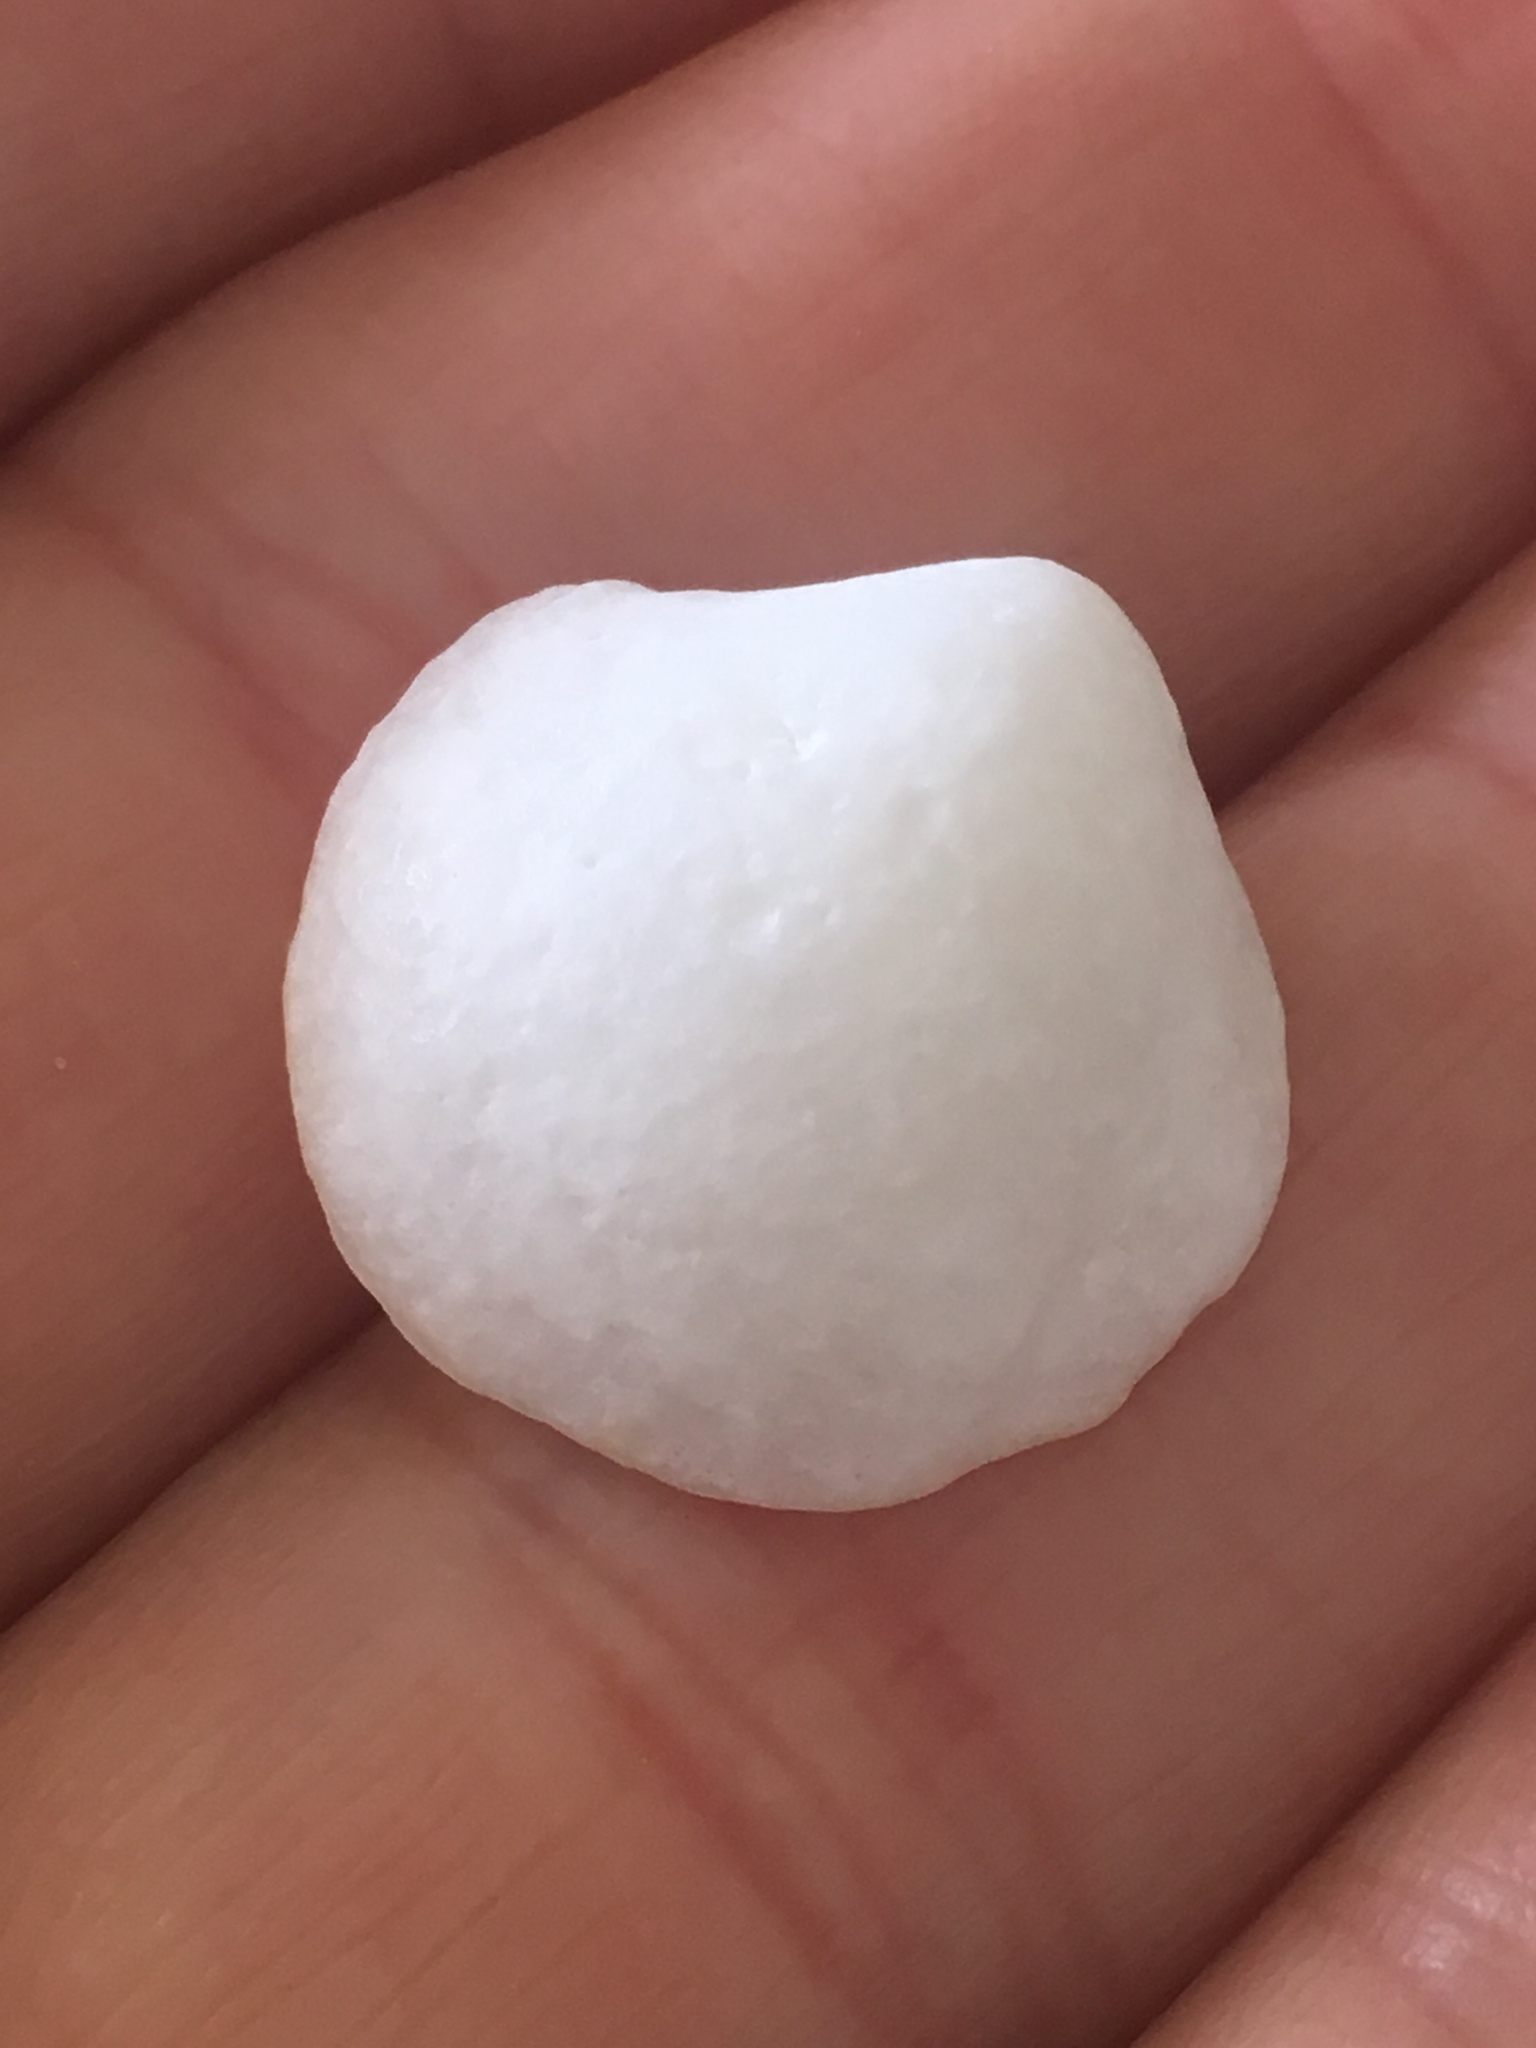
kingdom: Animalia
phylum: Mollusca
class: Bivalvia
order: Lucinida
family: Lucinidae
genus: Lucina
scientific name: Lucina pensylvanica
